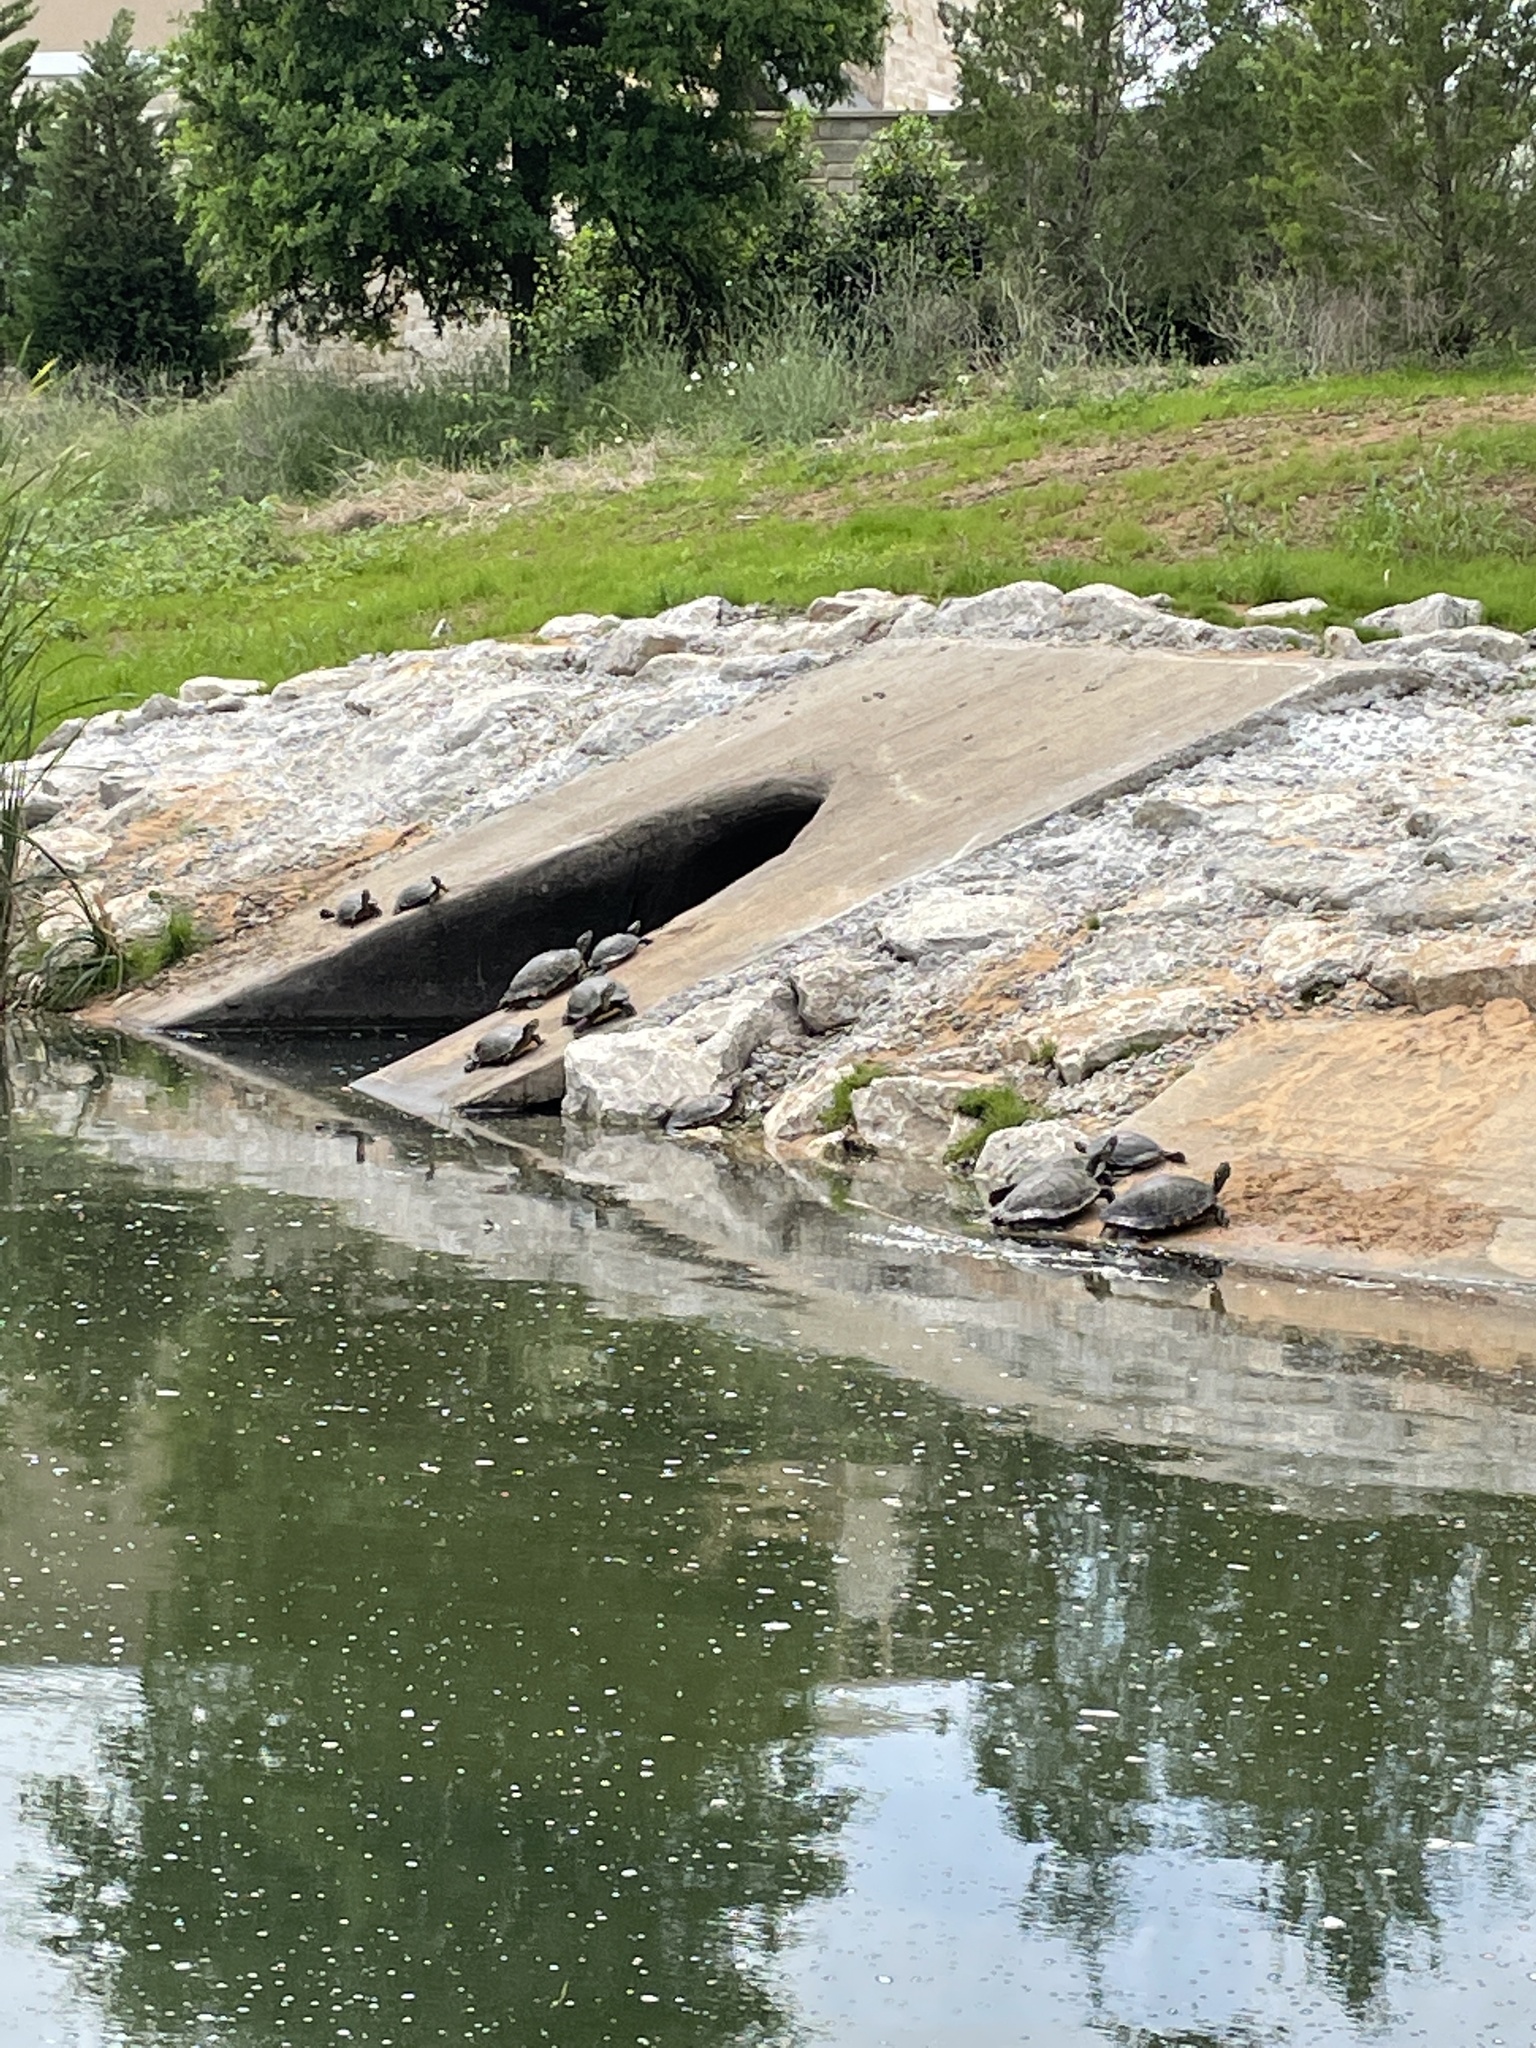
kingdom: Animalia
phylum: Chordata
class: Testudines
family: Emydidae
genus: Pseudemys
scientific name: Pseudemys concinna
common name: Eastern river cooter
